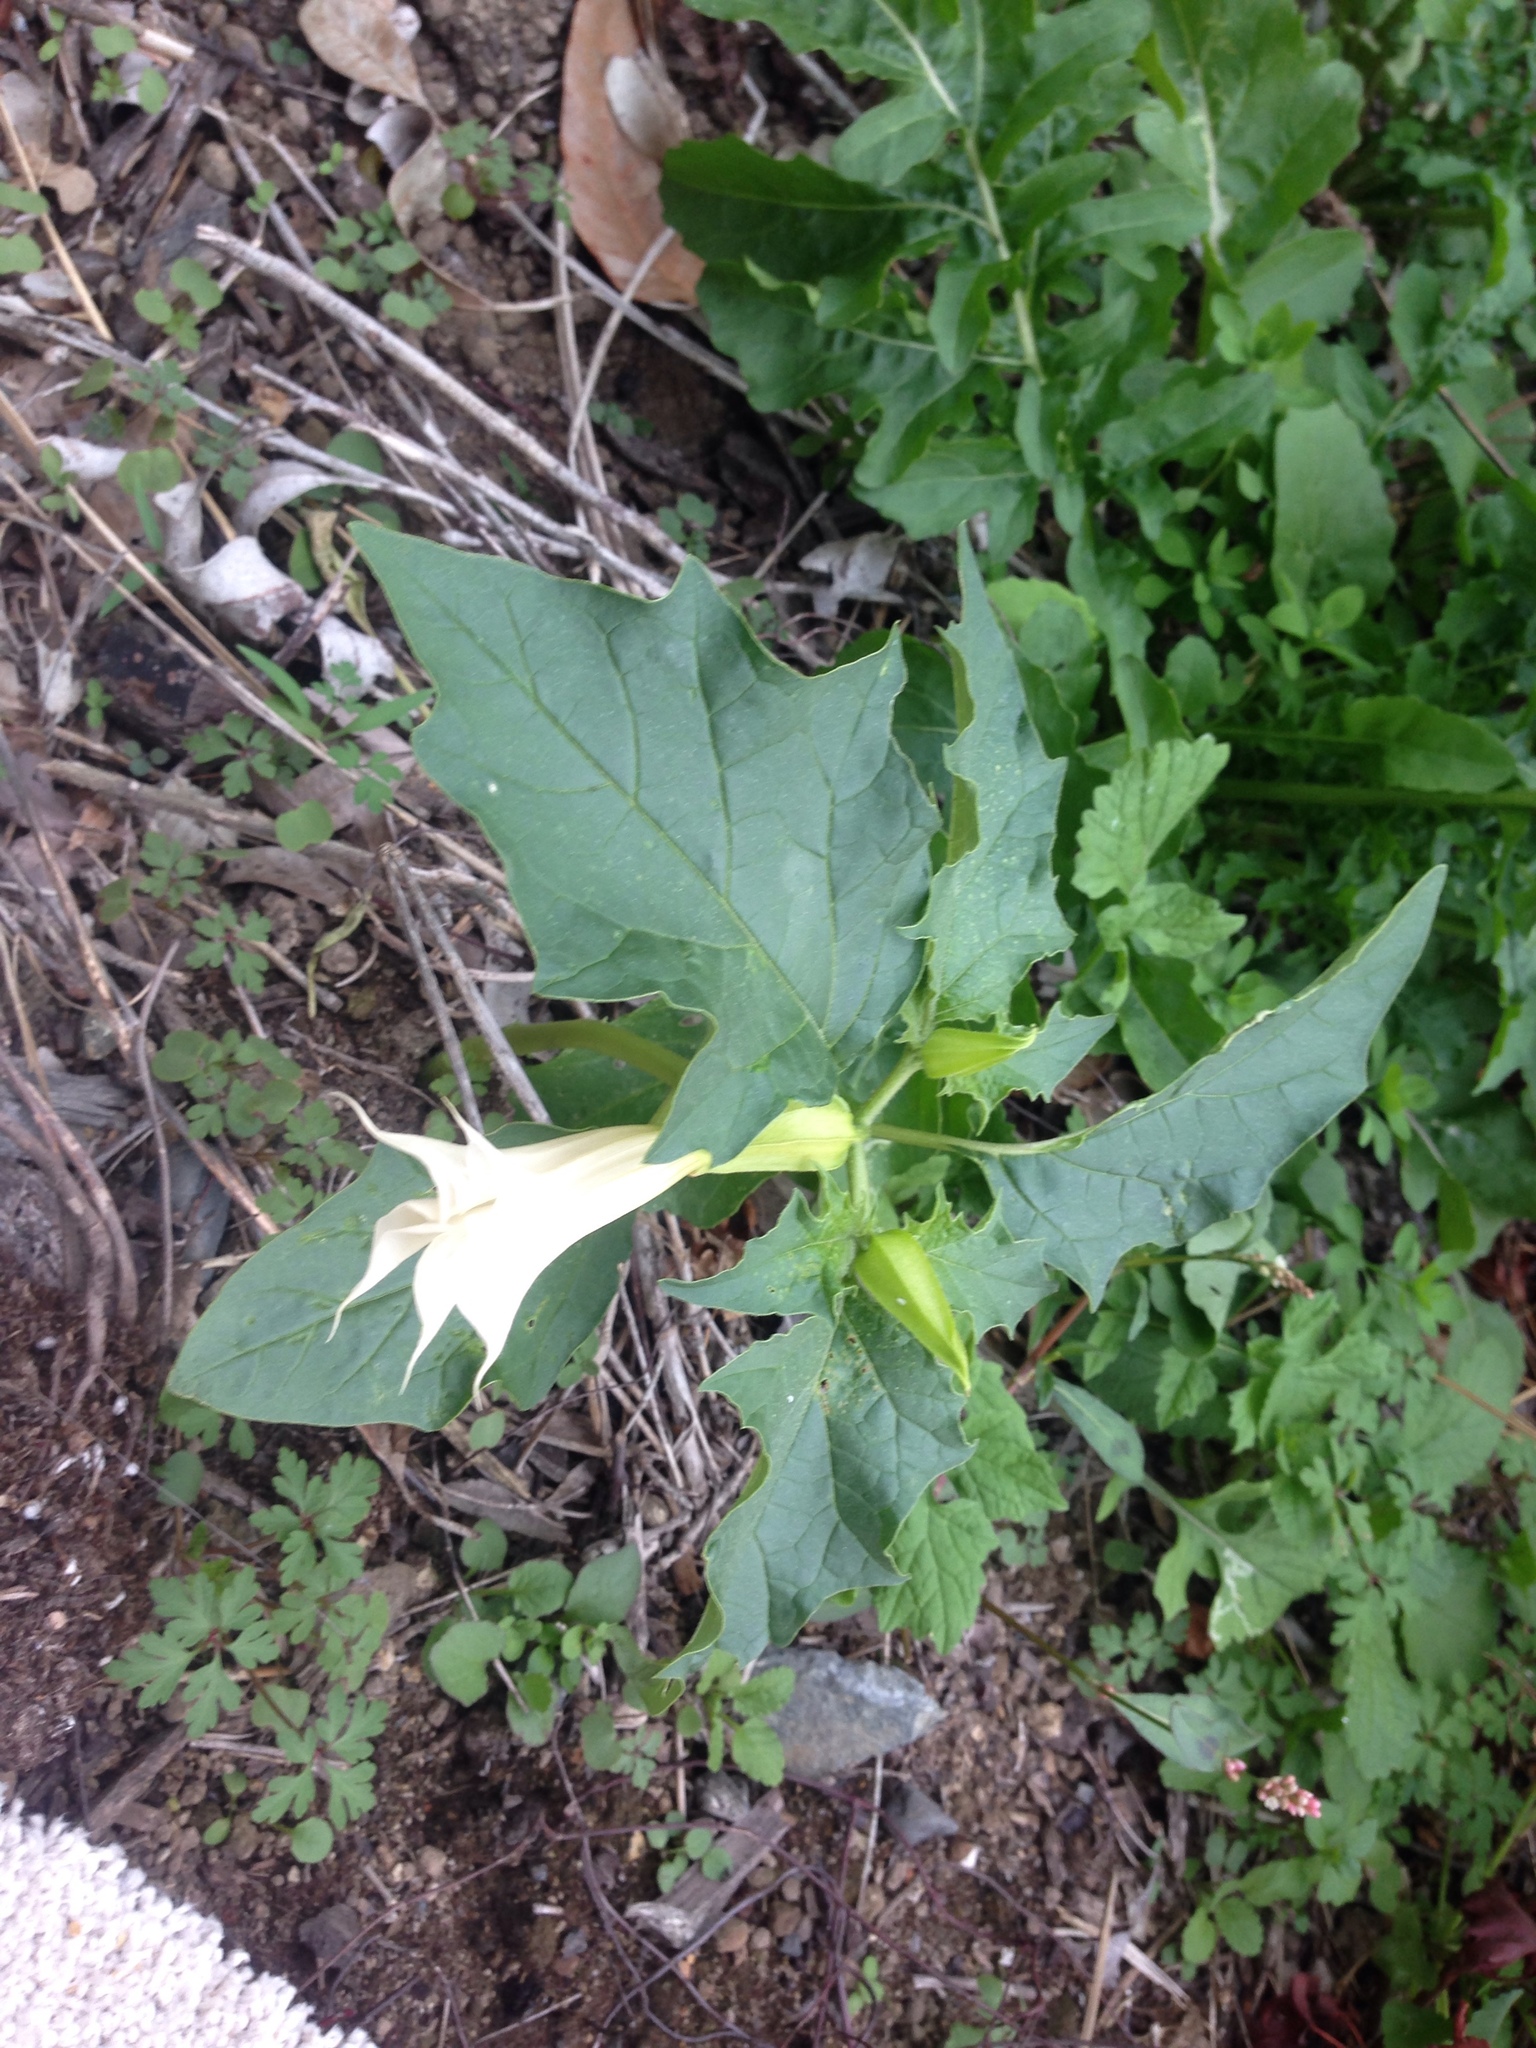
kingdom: Plantae
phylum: Tracheophyta
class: Magnoliopsida
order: Solanales
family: Solanaceae
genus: Datura
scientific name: Datura stramonium
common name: Thorn-apple
